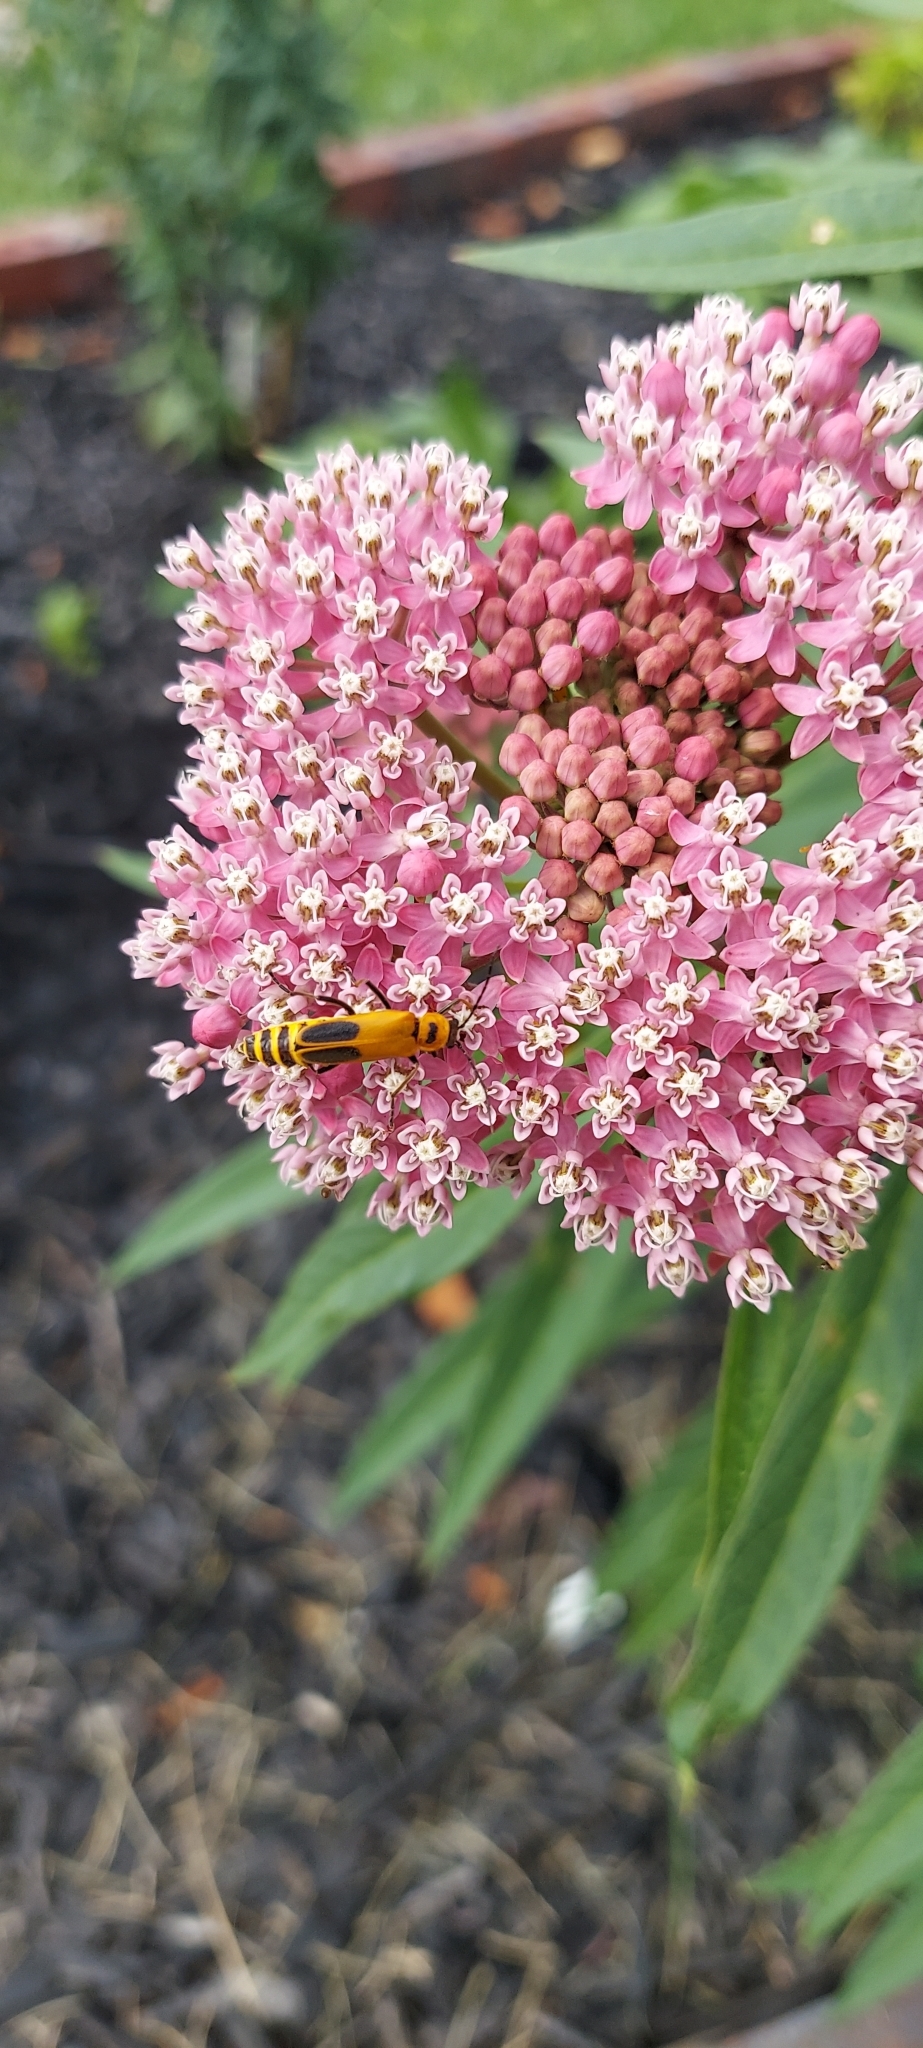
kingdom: Animalia
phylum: Arthropoda
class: Insecta
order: Coleoptera
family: Cantharidae
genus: Chauliognathus
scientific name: Chauliognathus pensylvanicus
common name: Goldenrod soldier beetle
